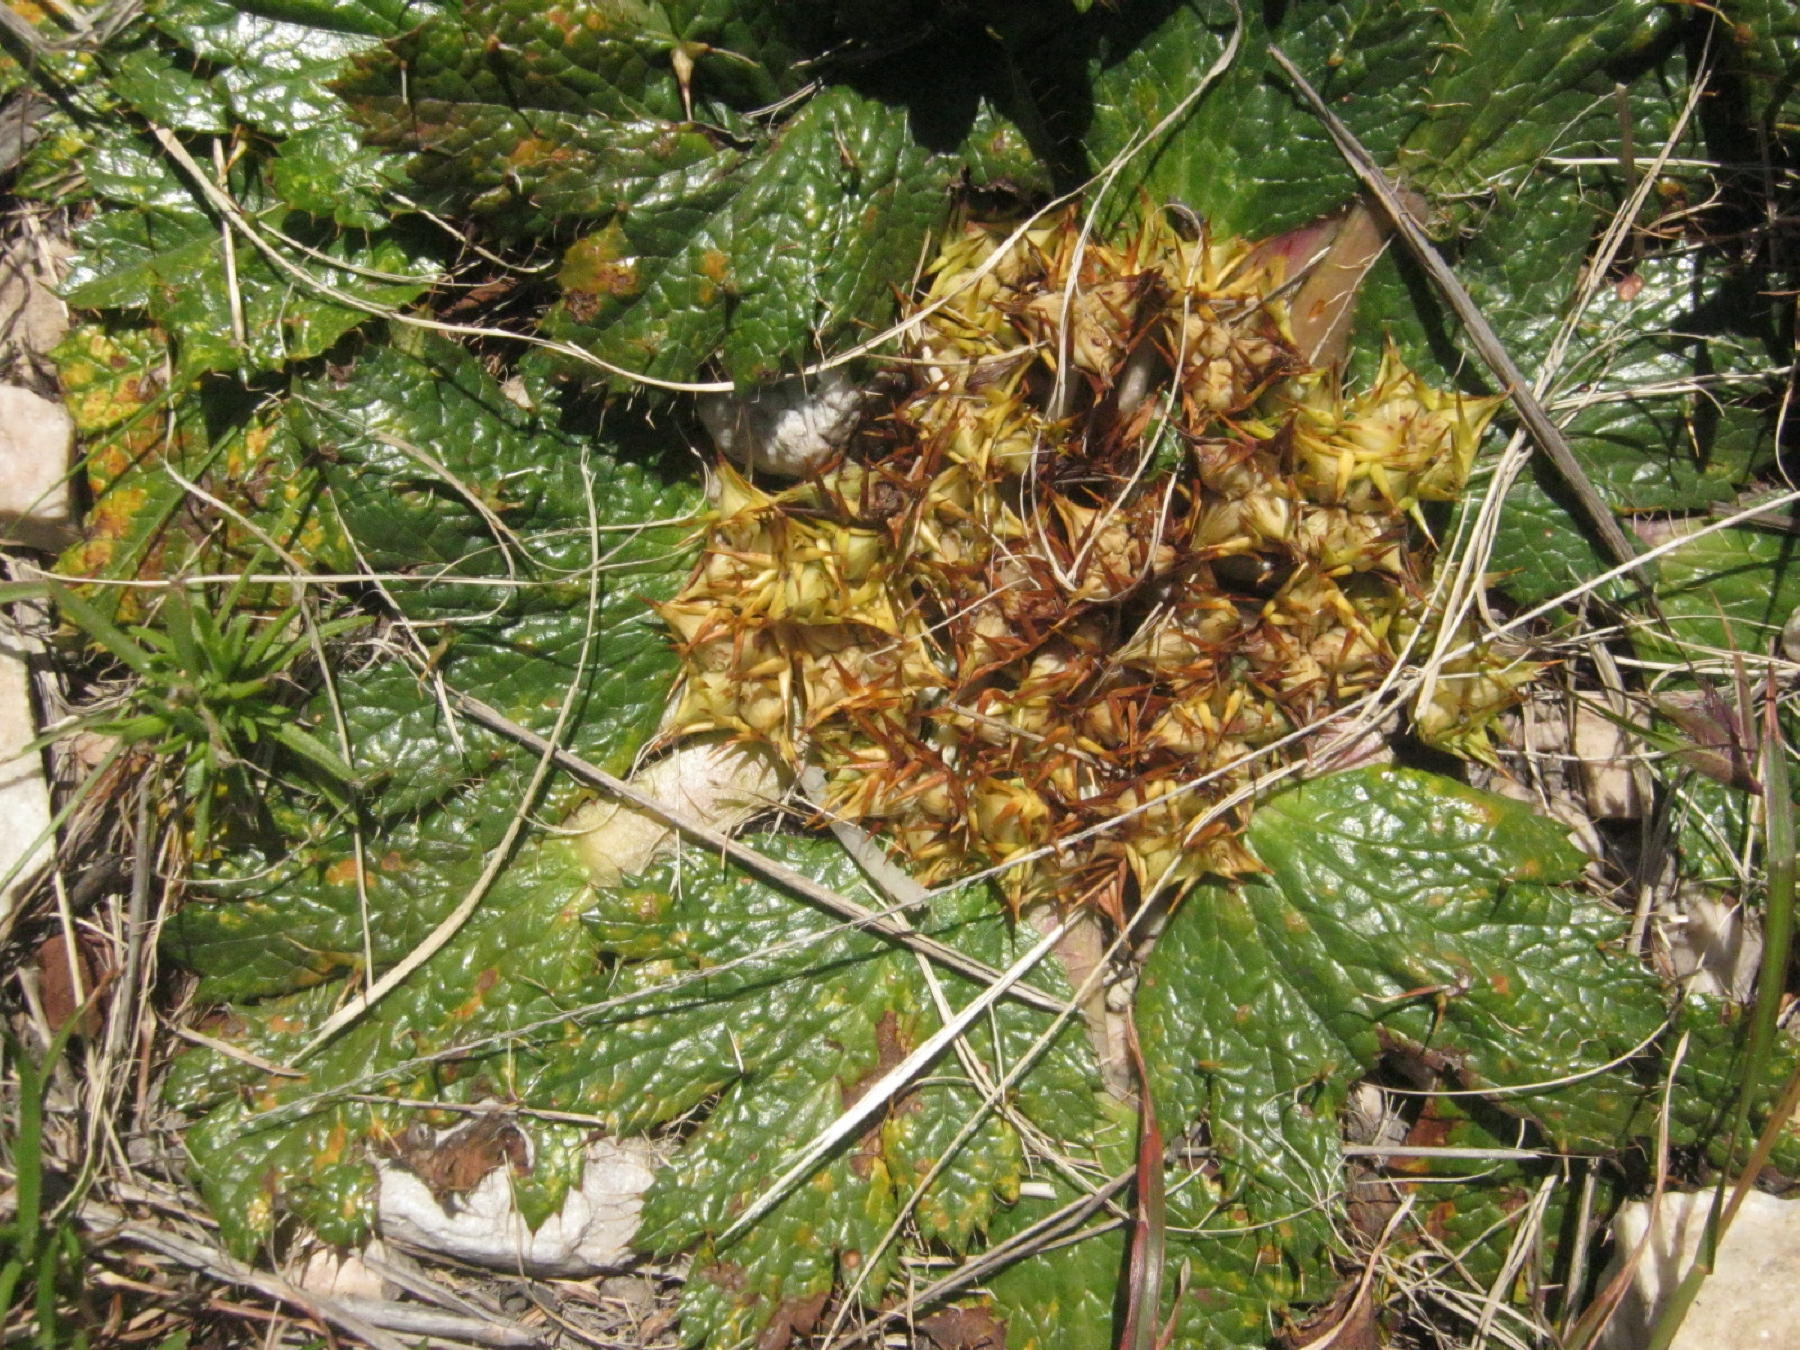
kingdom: Plantae
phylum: Tracheophyta
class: Magnoliopsida
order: Apiales
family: Apiaceae
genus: Arctopus
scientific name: Arctopus echinatus
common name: Platdoring
